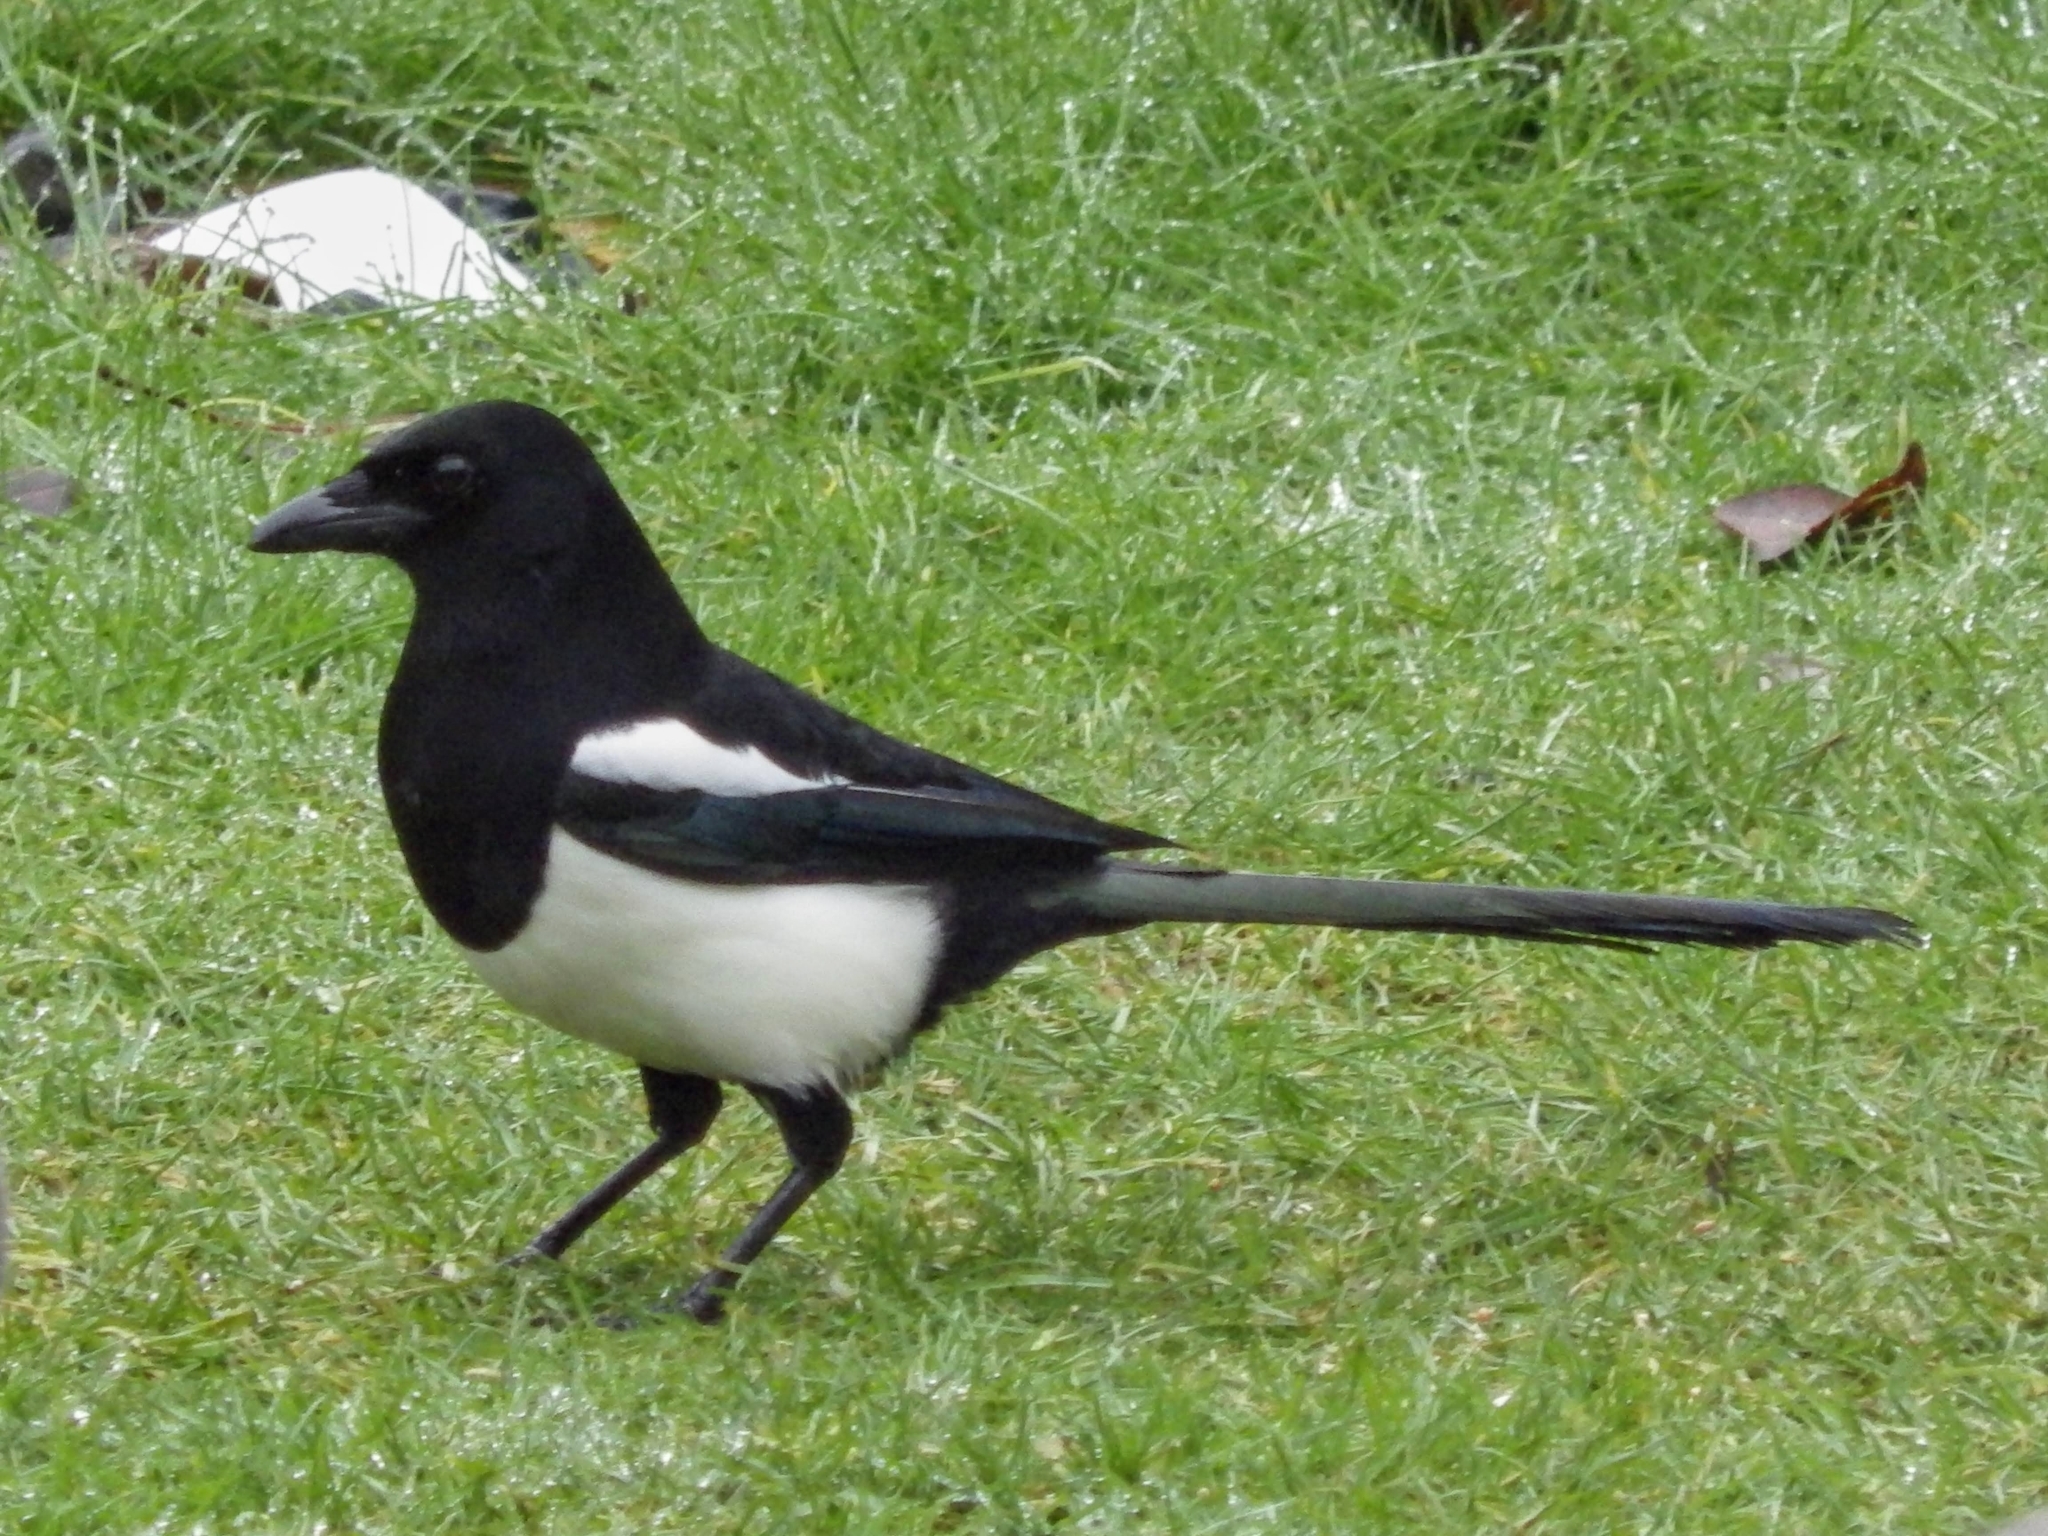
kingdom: Animalia
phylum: Chordata
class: Aves
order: Passeriformes
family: Corvidae
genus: Pica
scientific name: Pica pica
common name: Eurasian magpie
